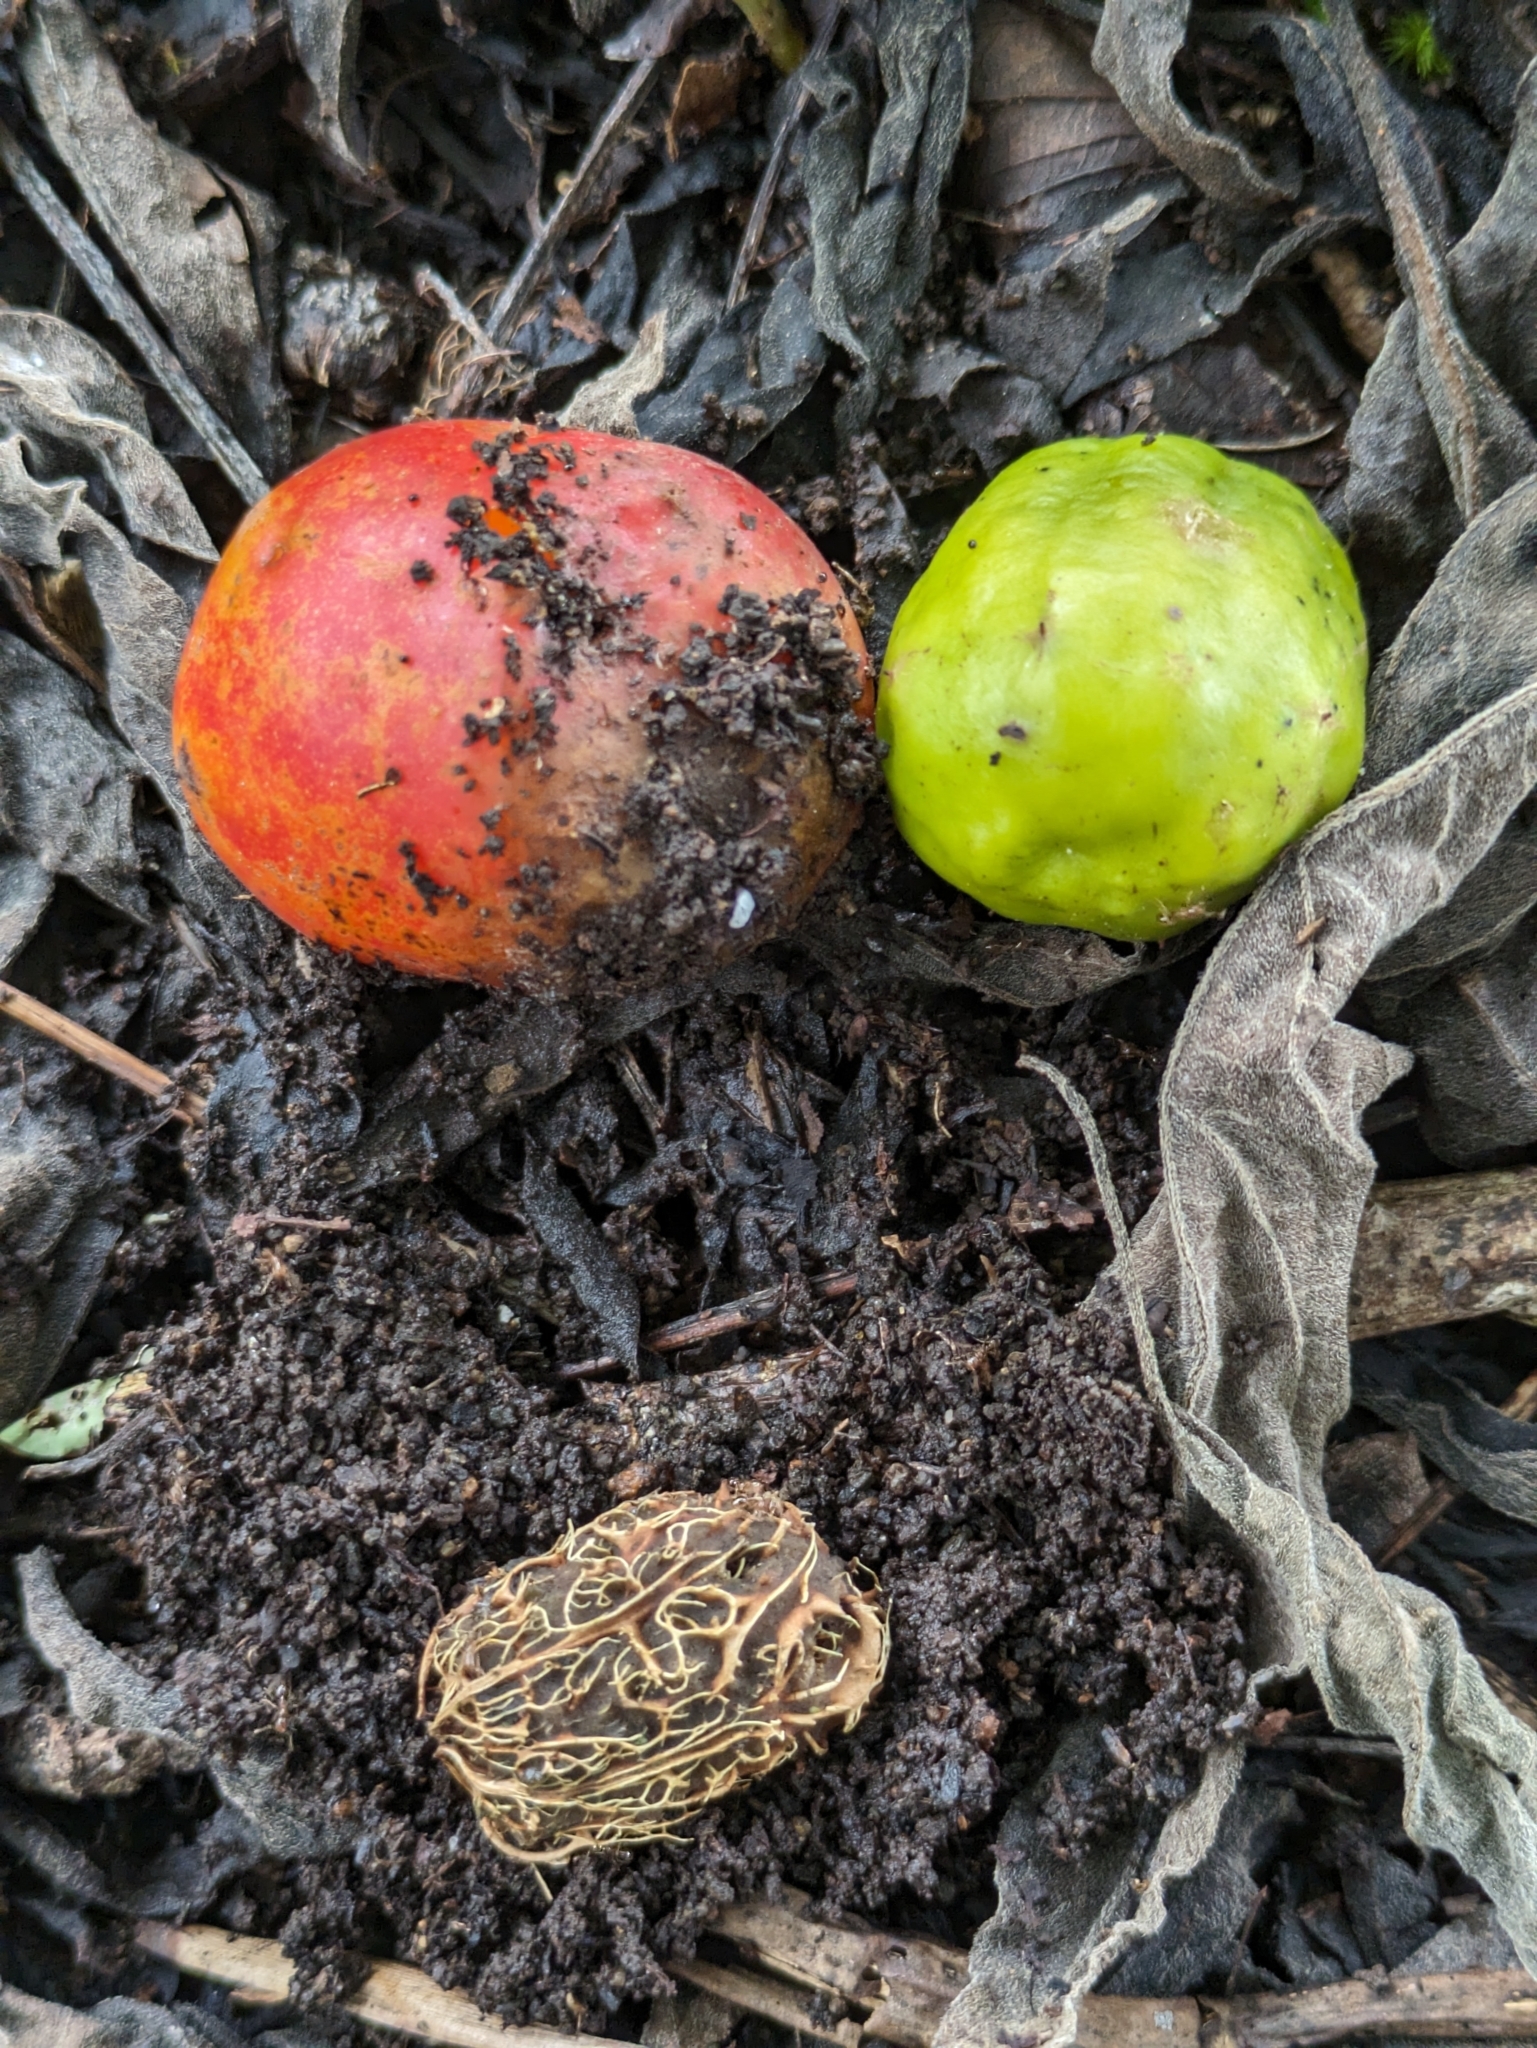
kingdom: Plantae
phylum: Tracheophyta
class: Magnoliopsida
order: Sapindales
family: Anacardiaceae
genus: Spondias
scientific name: Spondias purpurea
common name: Purple mombin
